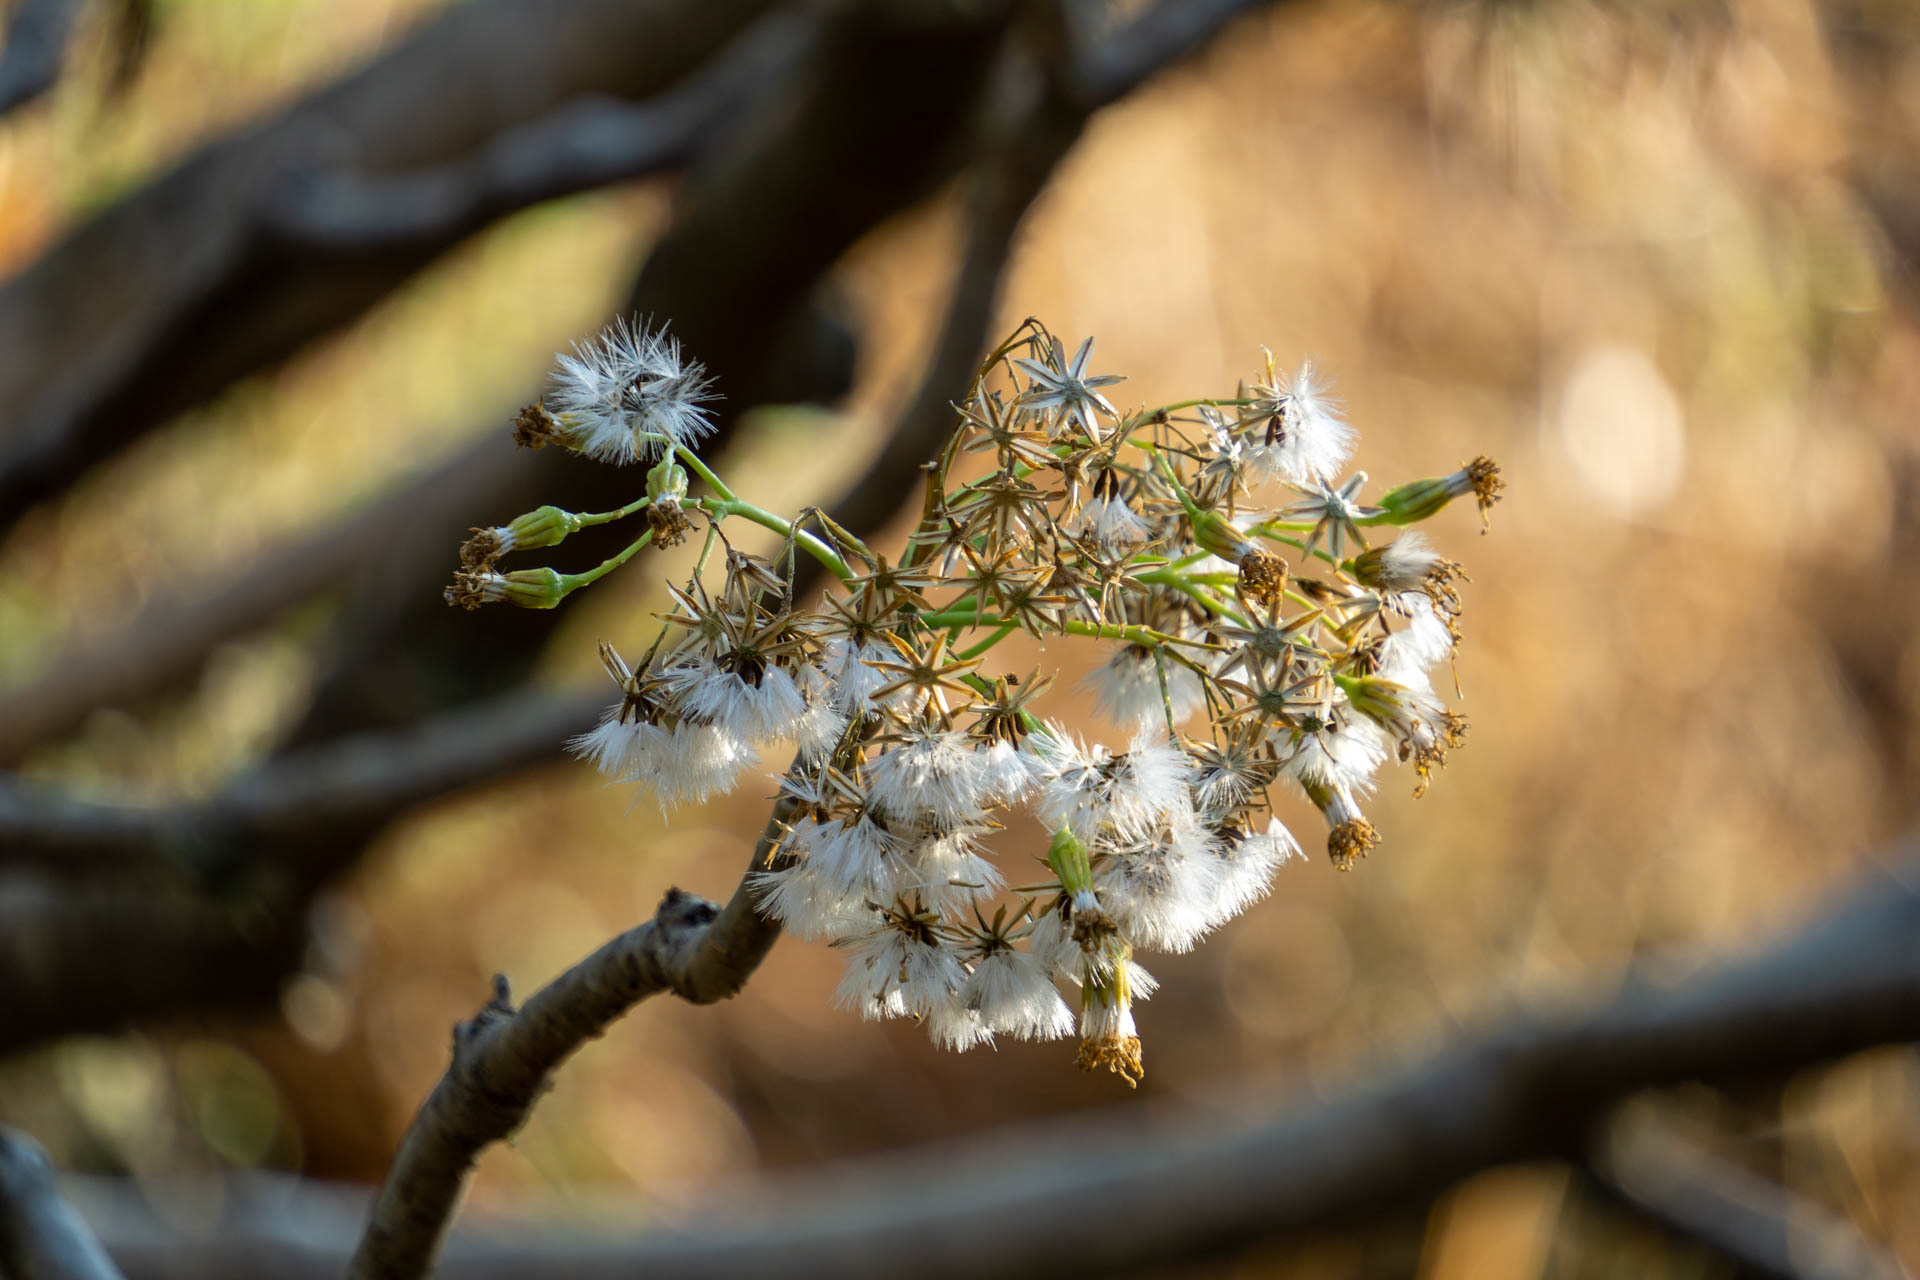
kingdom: Plantae
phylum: Tracheophyta
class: Magnoliopsida
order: Asterales
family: Asteraceae
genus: Pittocaulon
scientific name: Pittocaulon praecox
